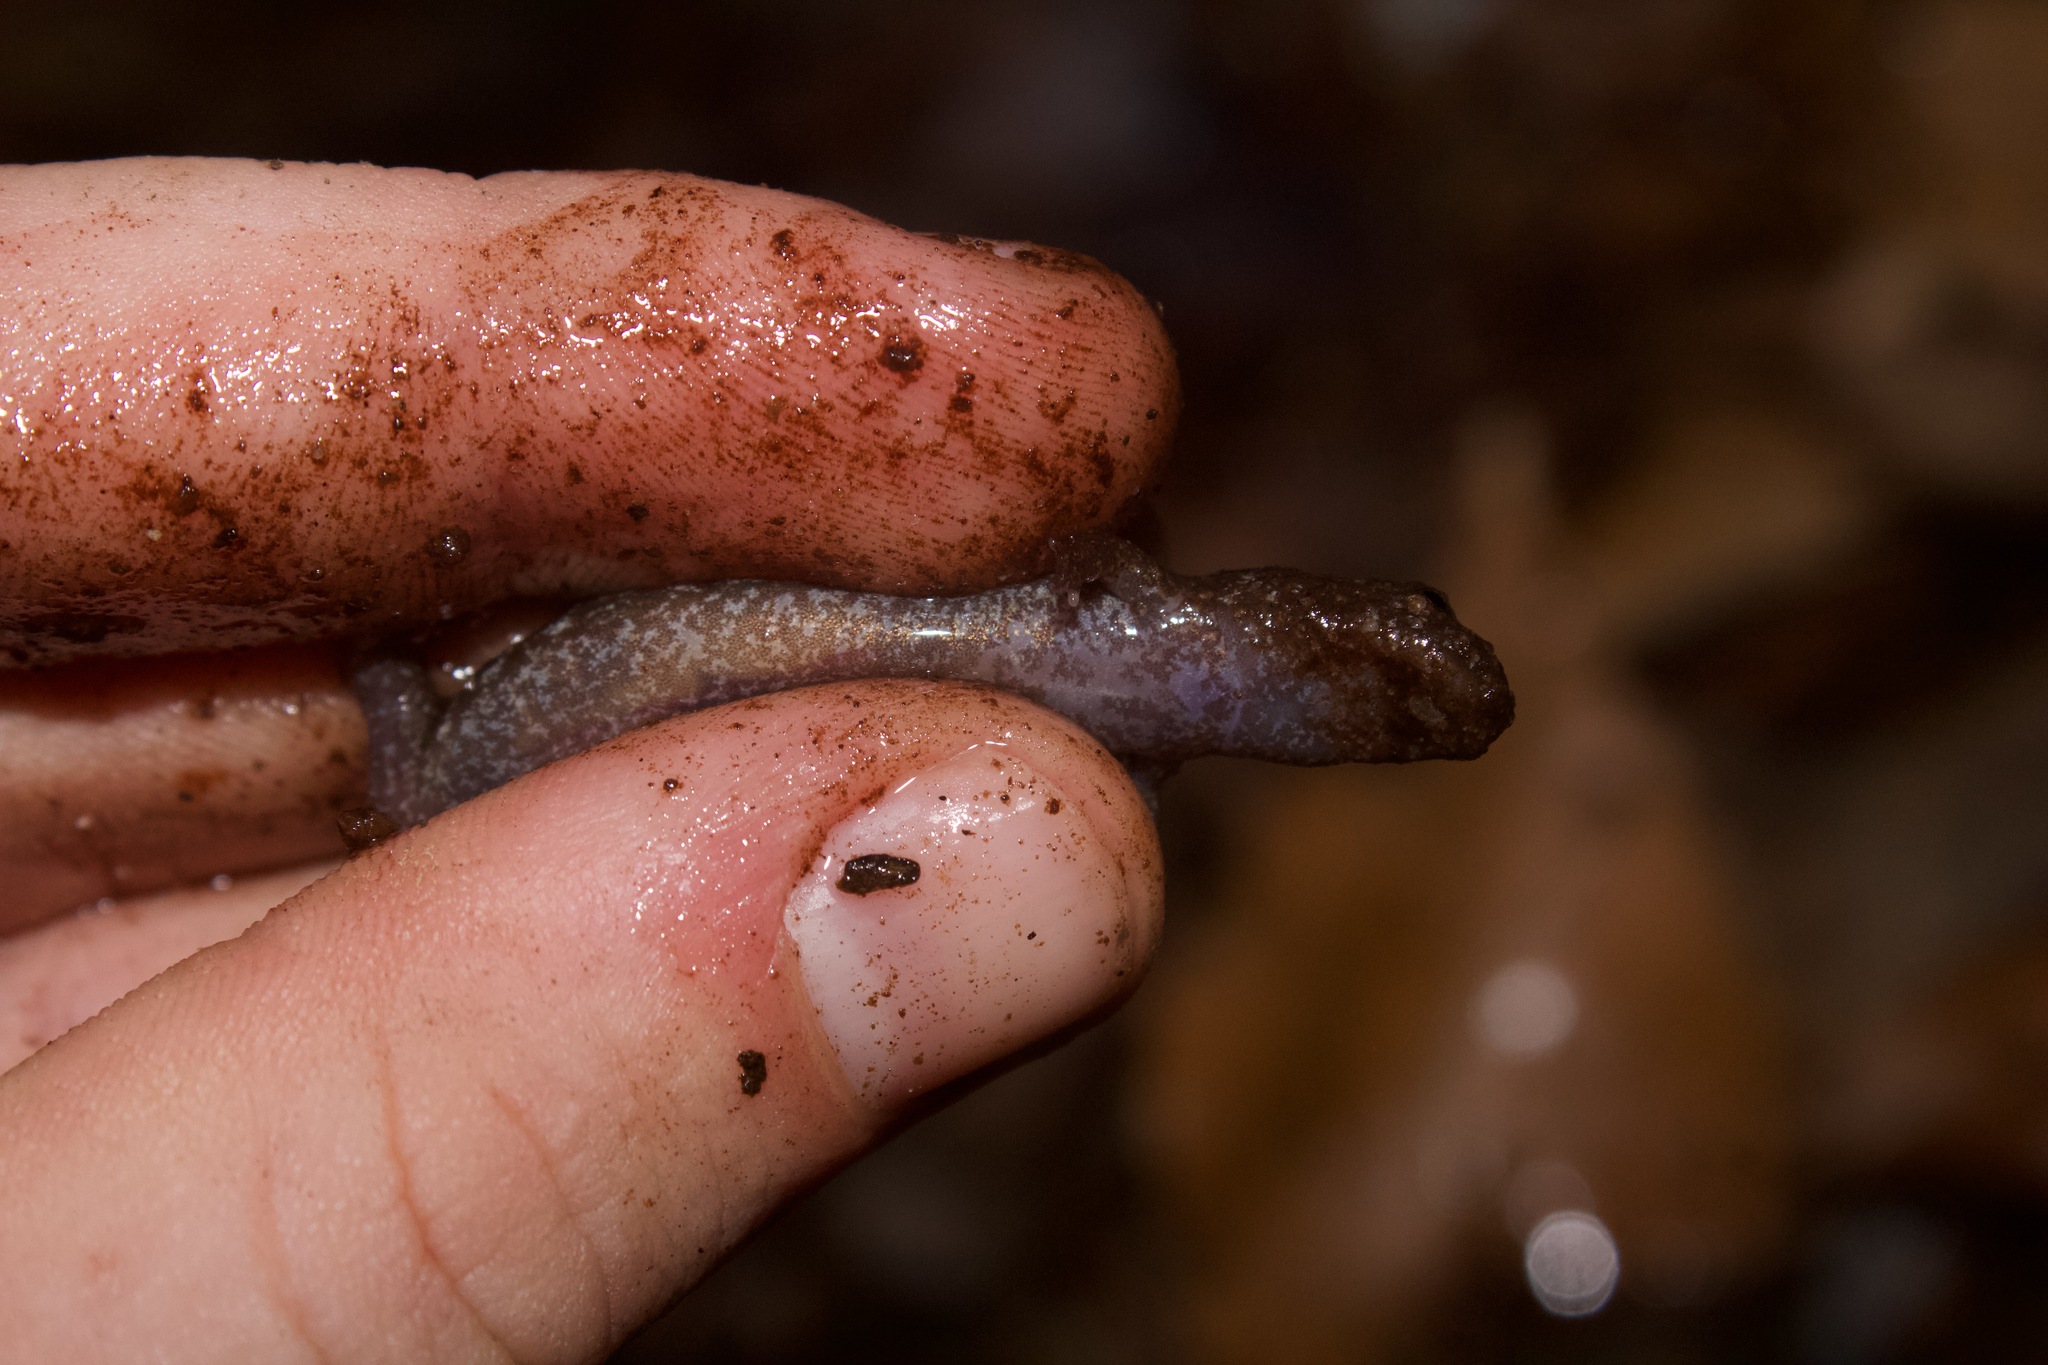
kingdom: Animalia
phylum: Chordata
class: Amphibia
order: Caudata
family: Plethodontidae
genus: Desmognathus
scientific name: Desmognathus conanti
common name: Spotted dusky salamander
